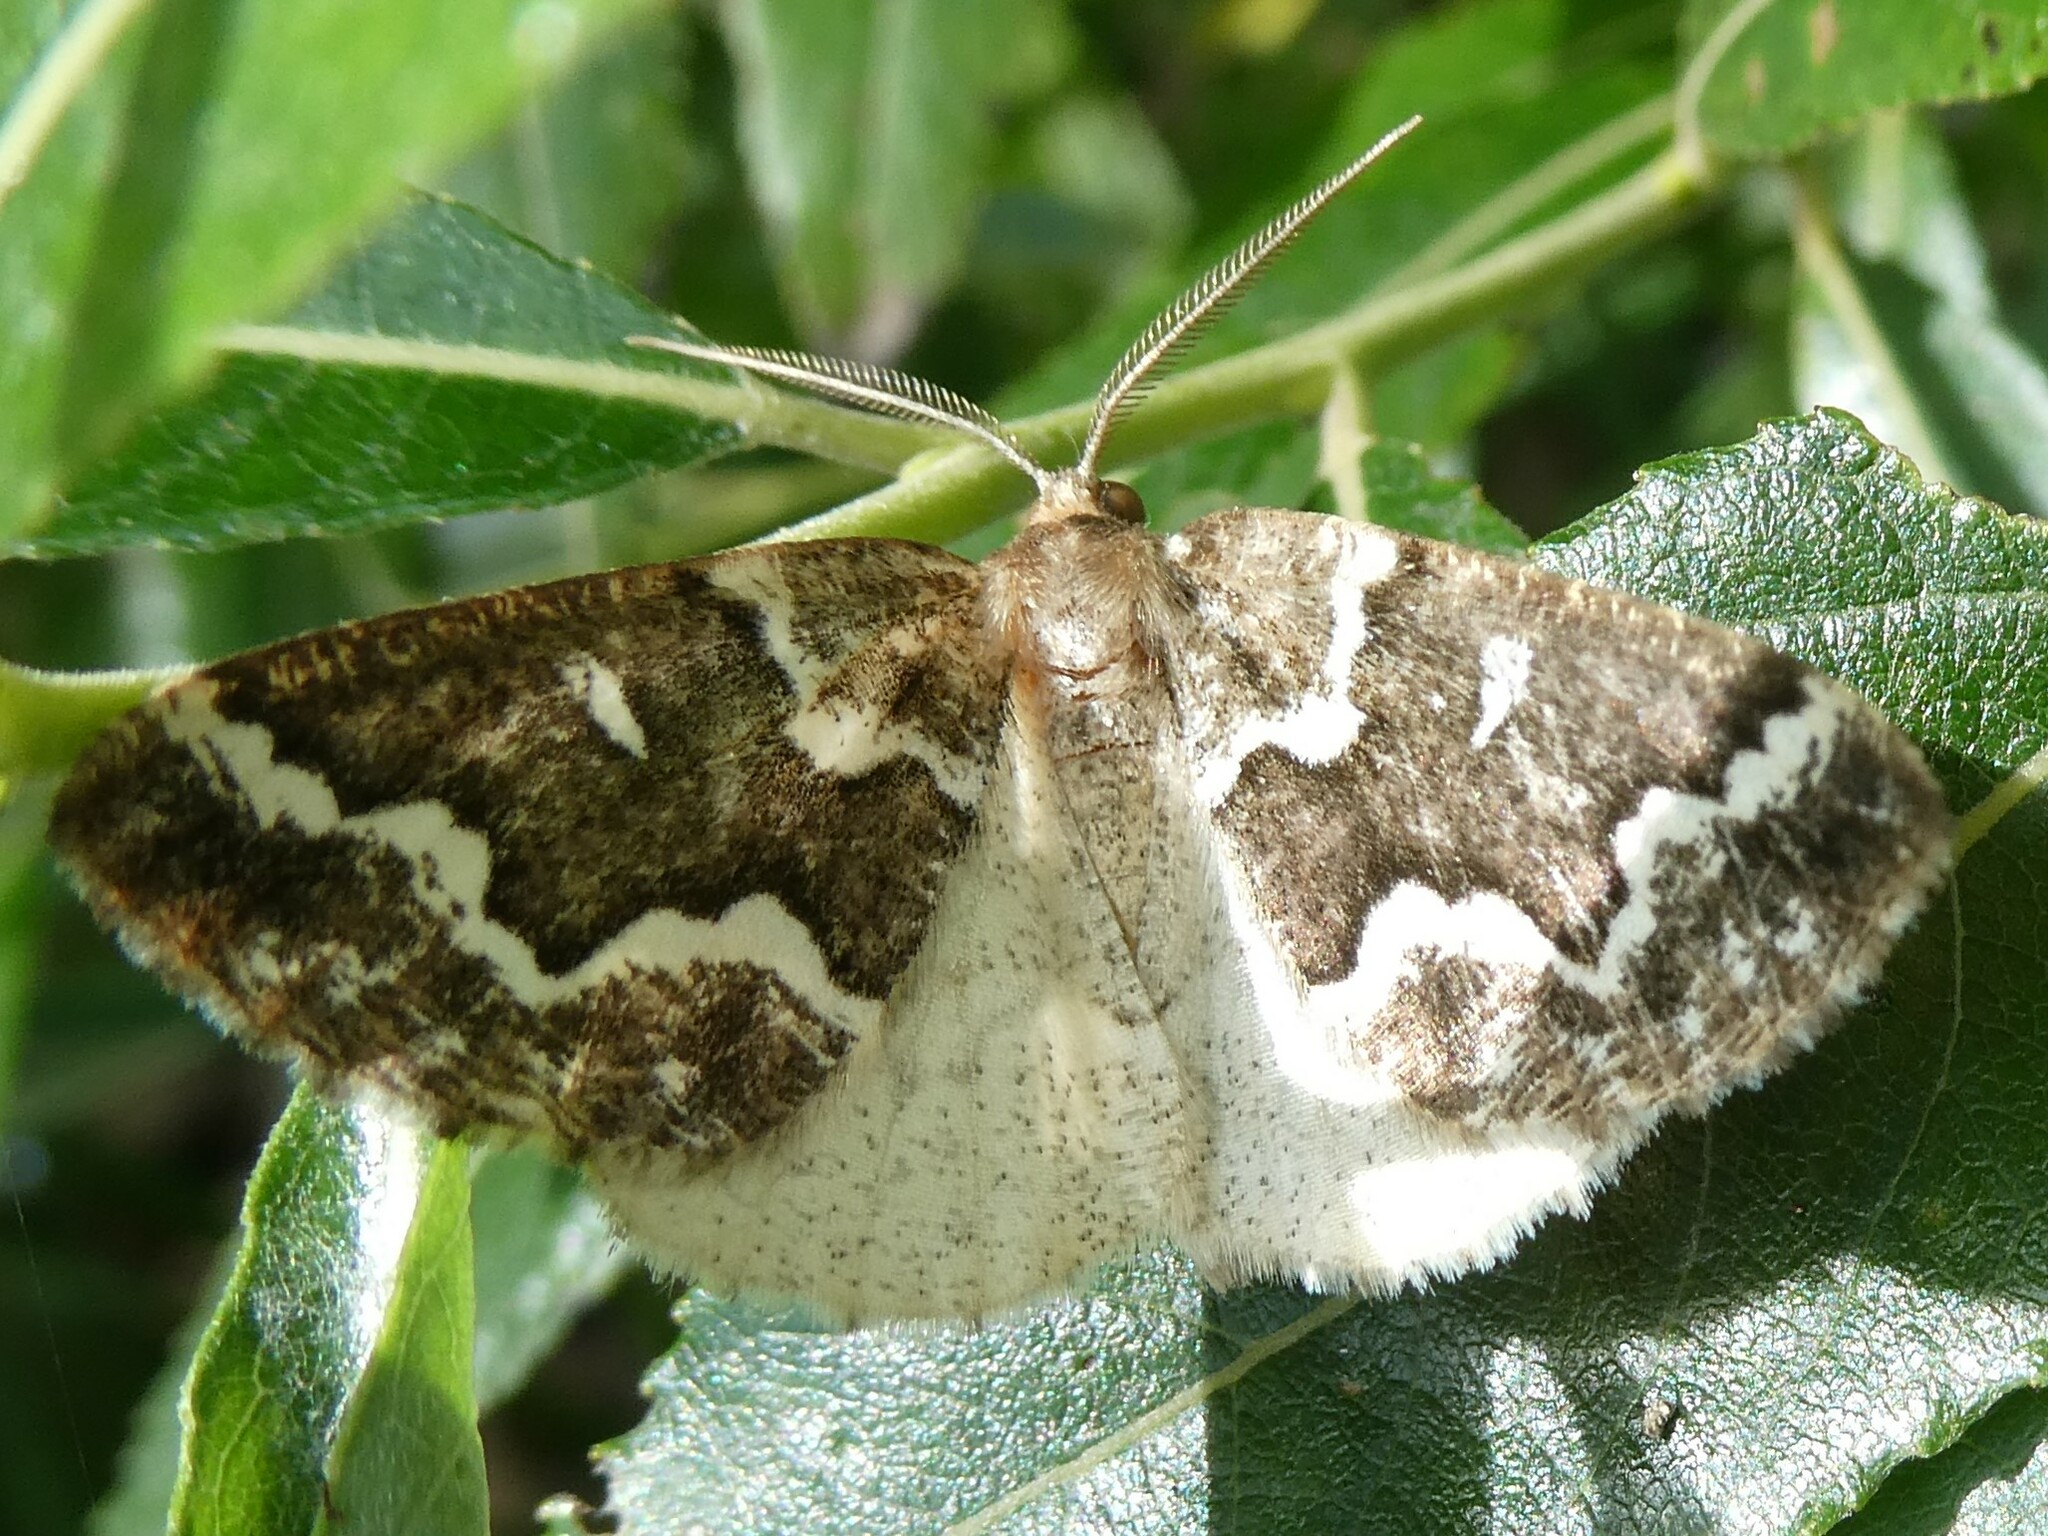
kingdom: Animalia
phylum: Arthropoda
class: Insecta
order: Lepidoptera
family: Geometridae
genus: Caripeta
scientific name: Caripeta divisata
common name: Gray spruce looper
